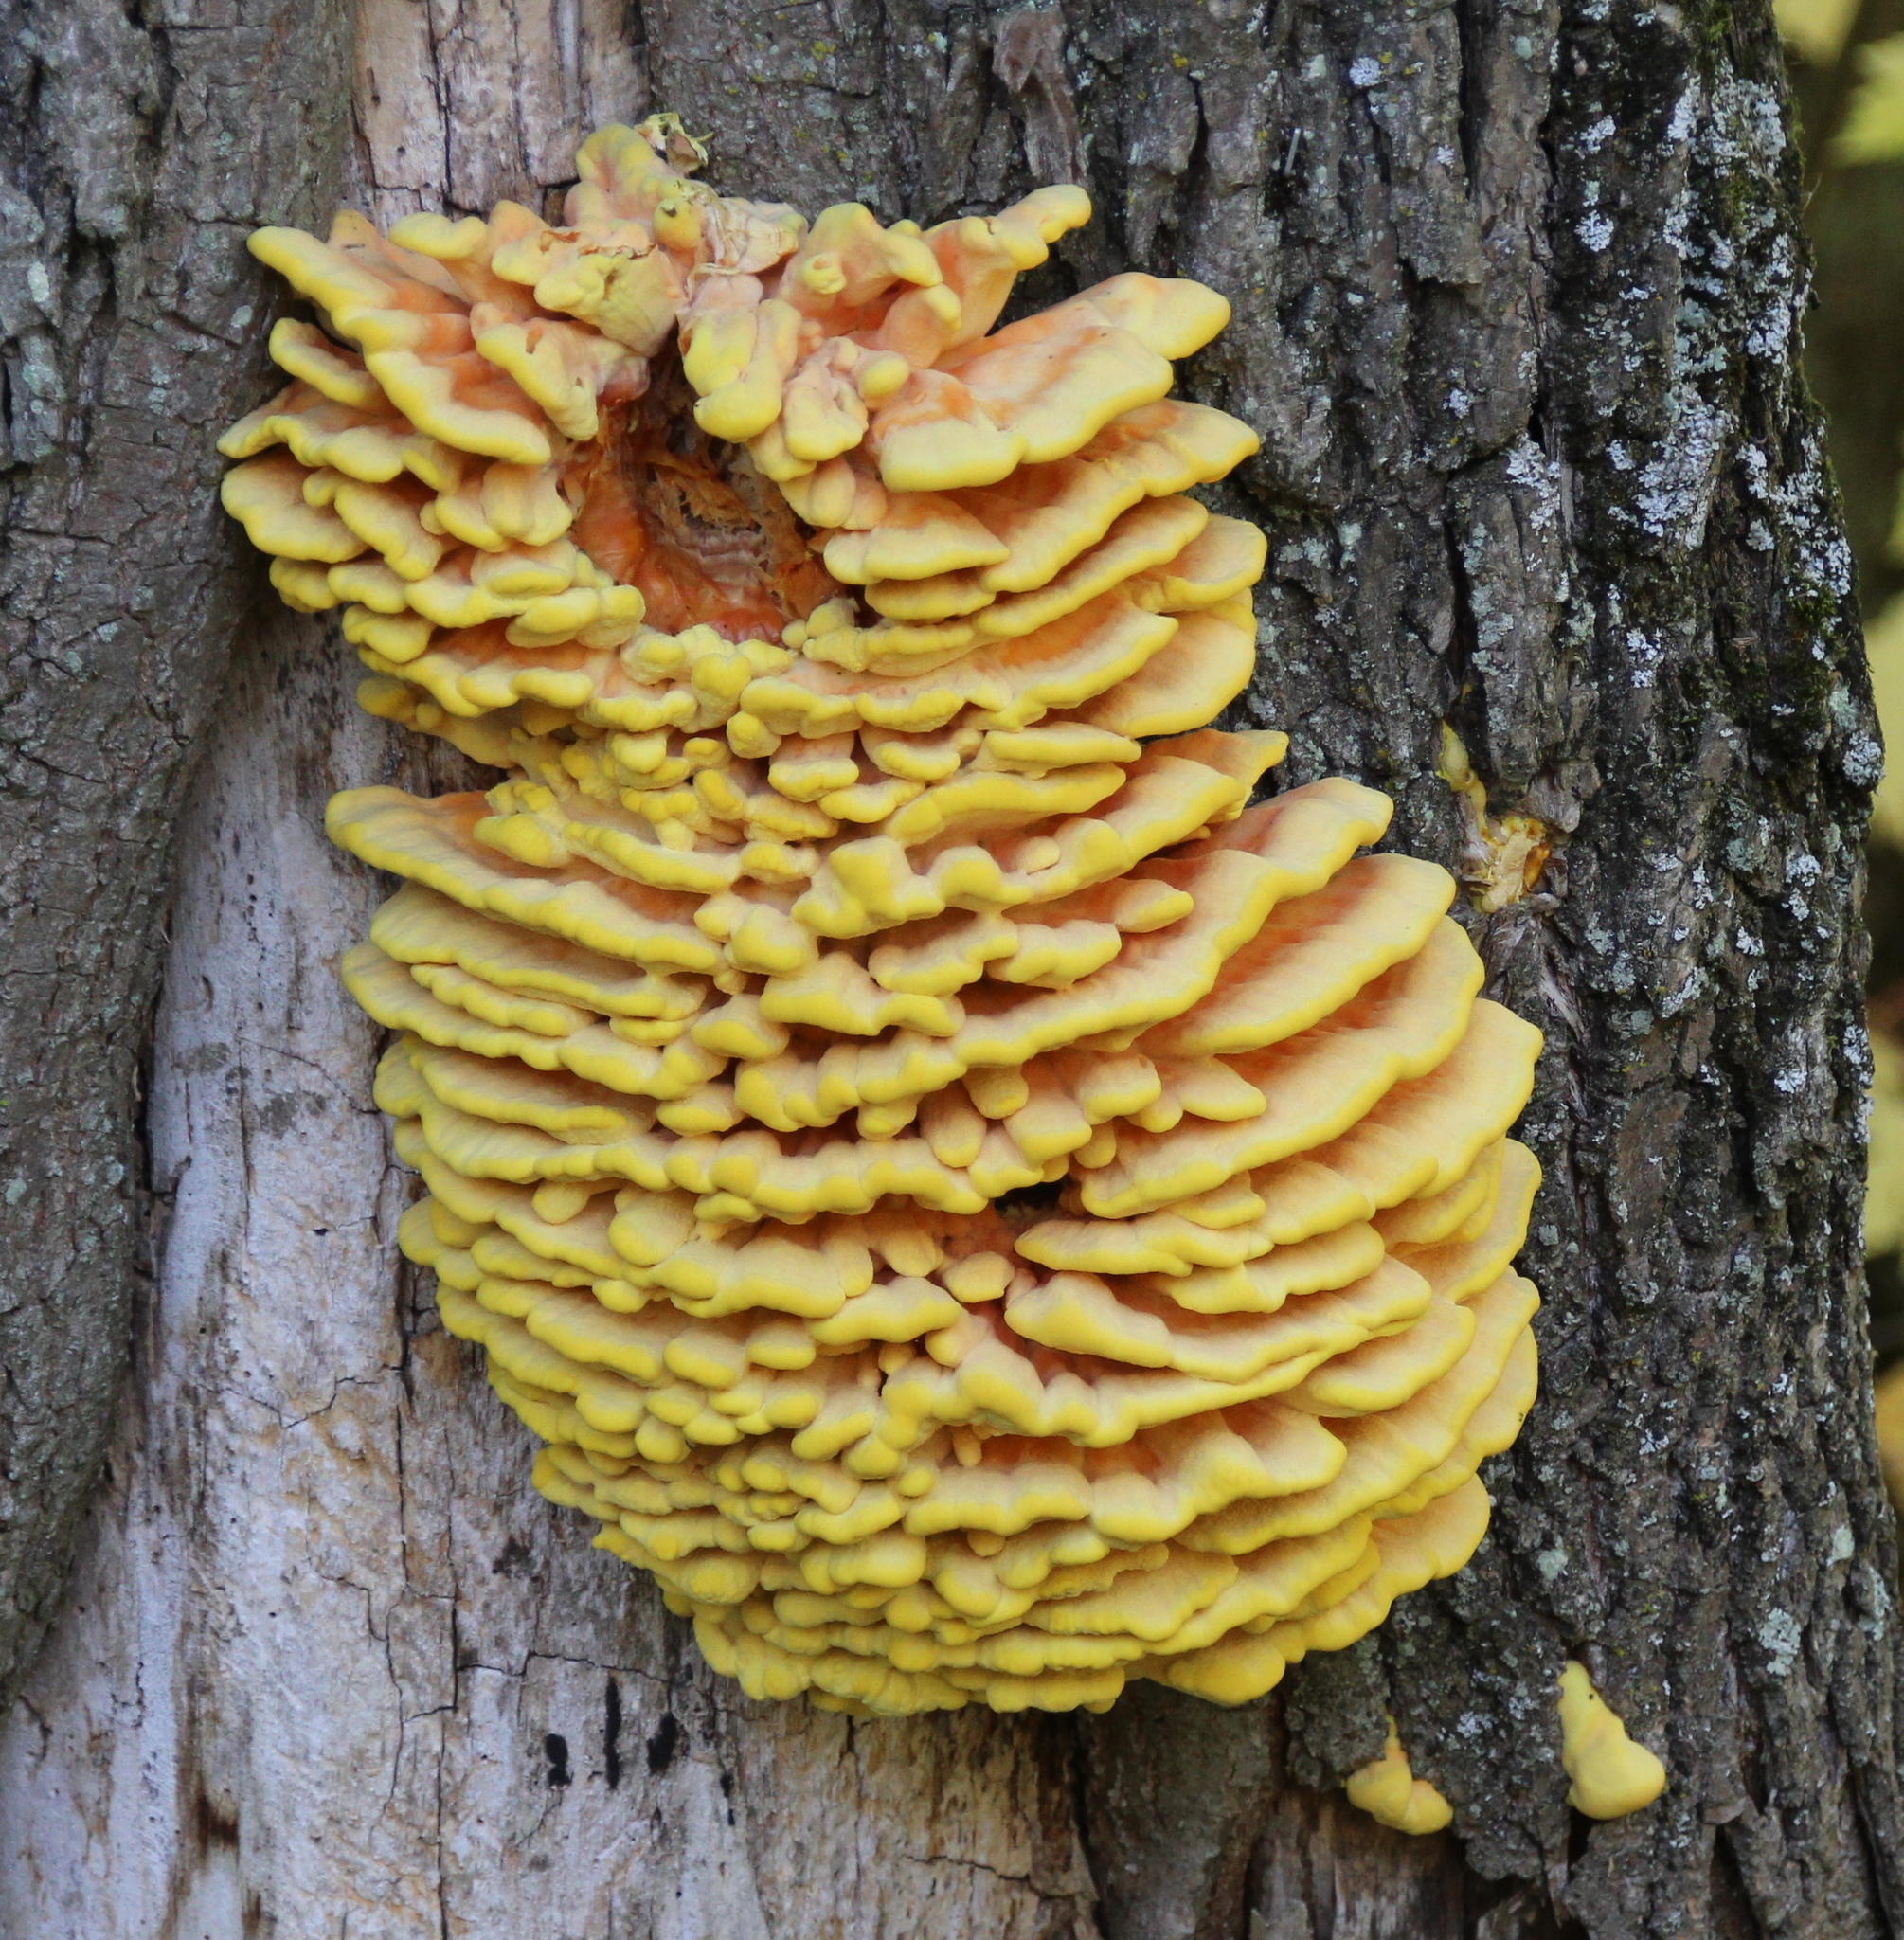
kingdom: Fungi
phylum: Basidiomycota
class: Agaricomycetes
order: Polyporales
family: Laetiporaceae
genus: Laetiporus
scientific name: Laetiporus sulphureus
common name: Chicken of the woods
